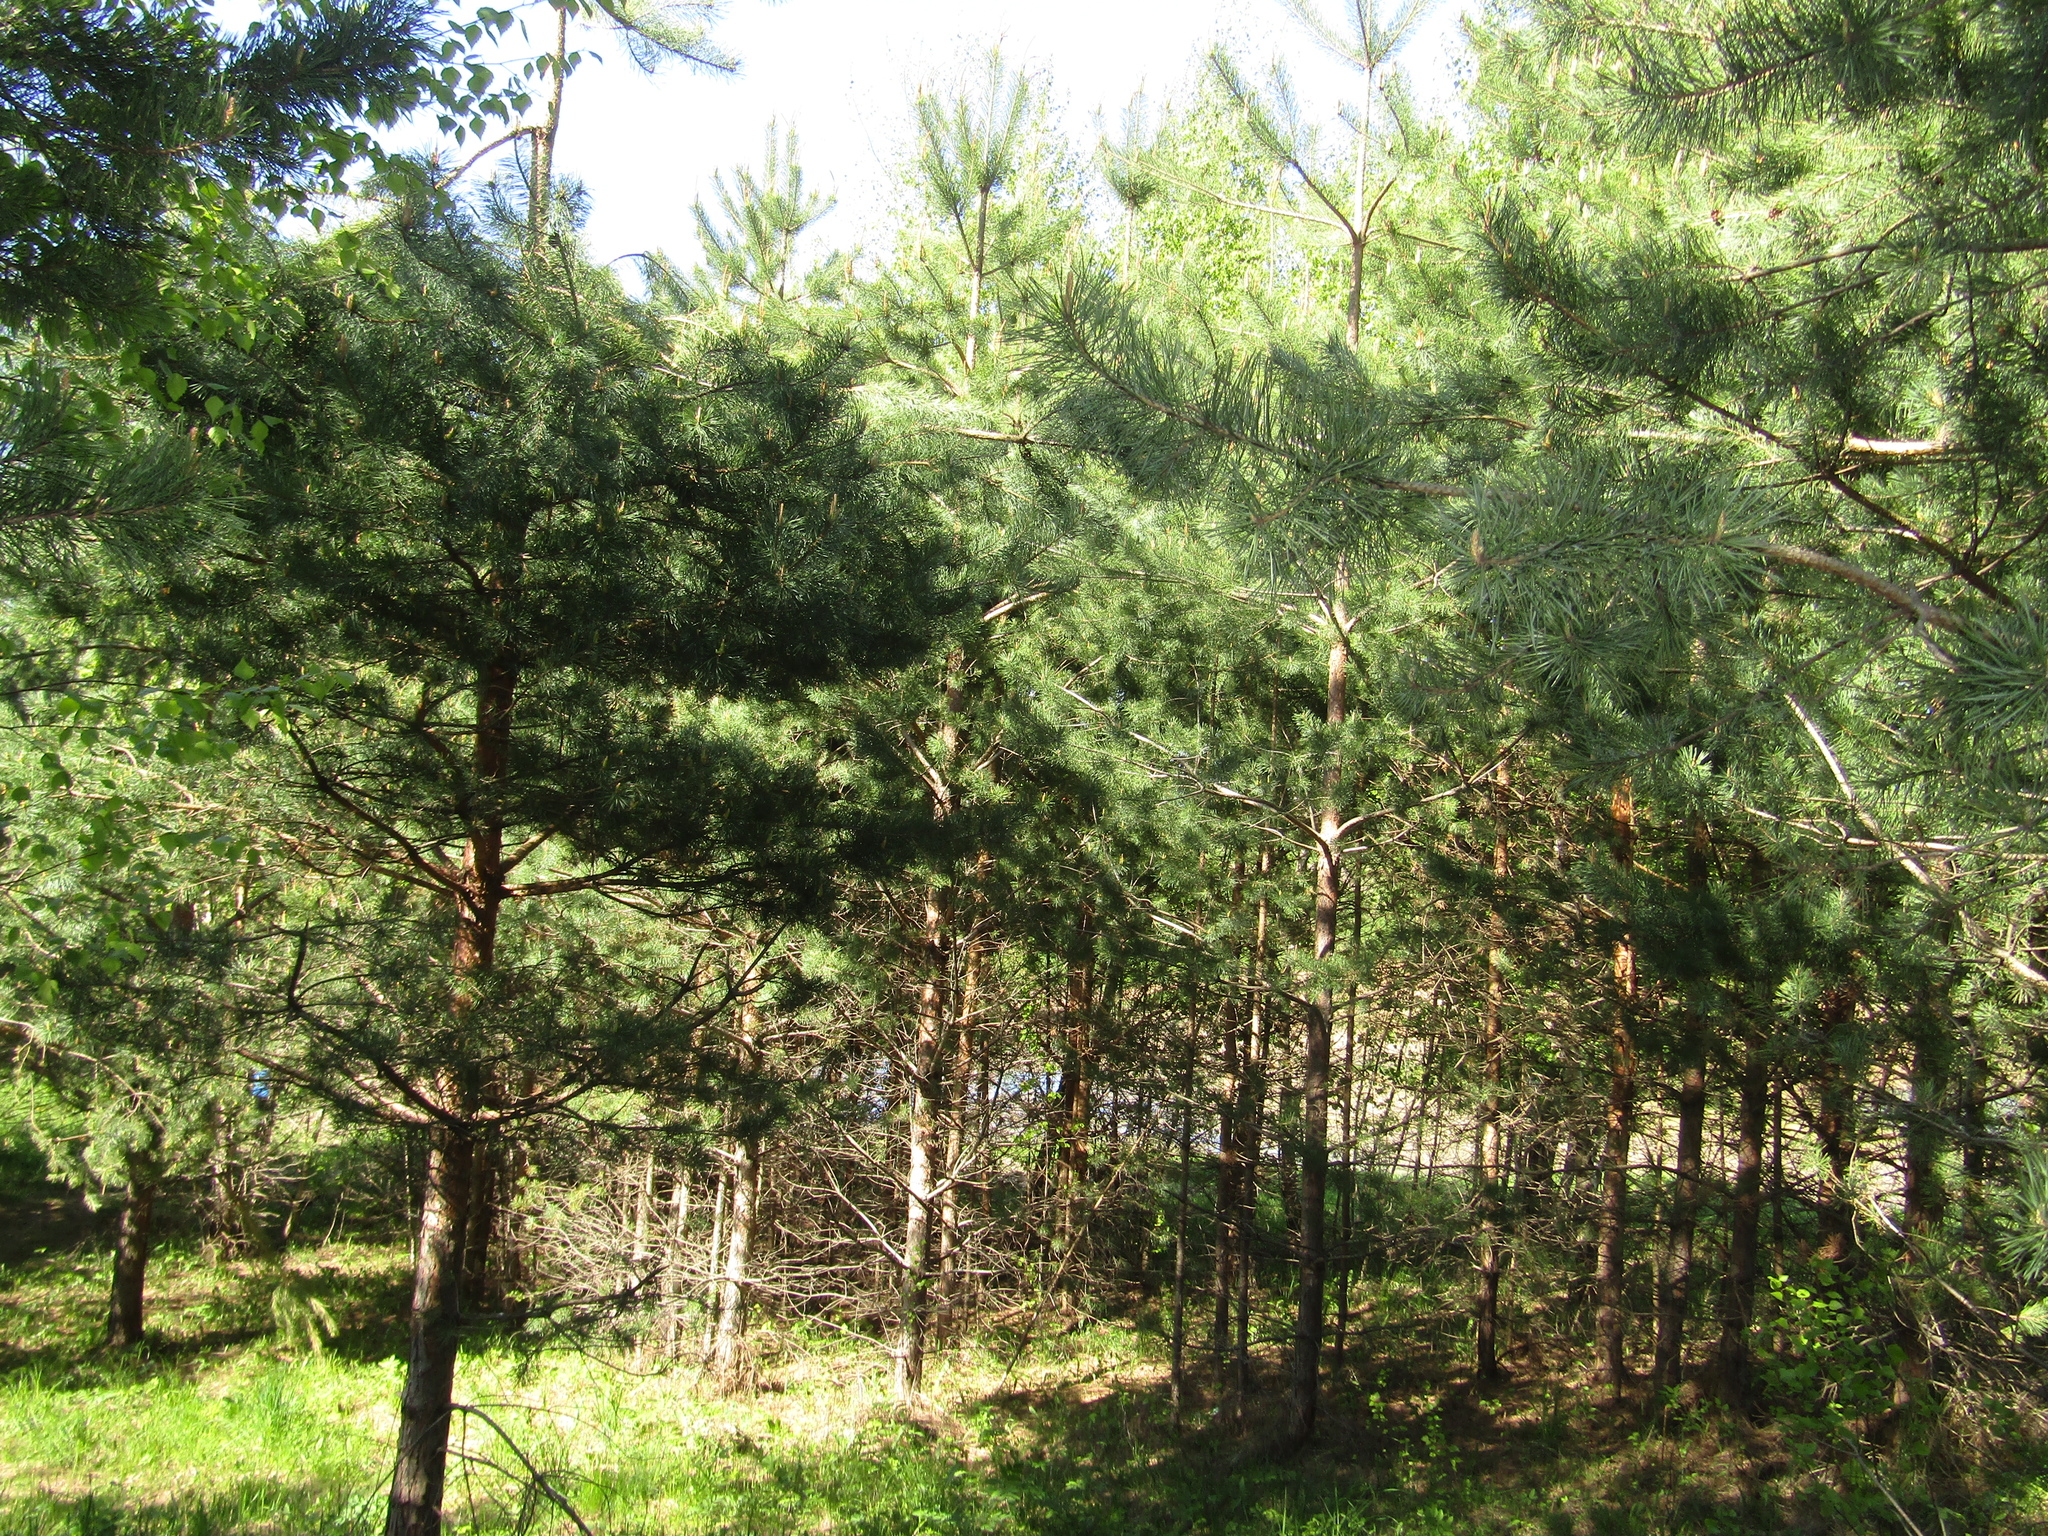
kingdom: Plantae
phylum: Tracheophyta
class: Pinopsida
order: Pinales
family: Pinaceae
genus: Pinus
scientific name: Pinus sylvestris
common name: Scots pine
